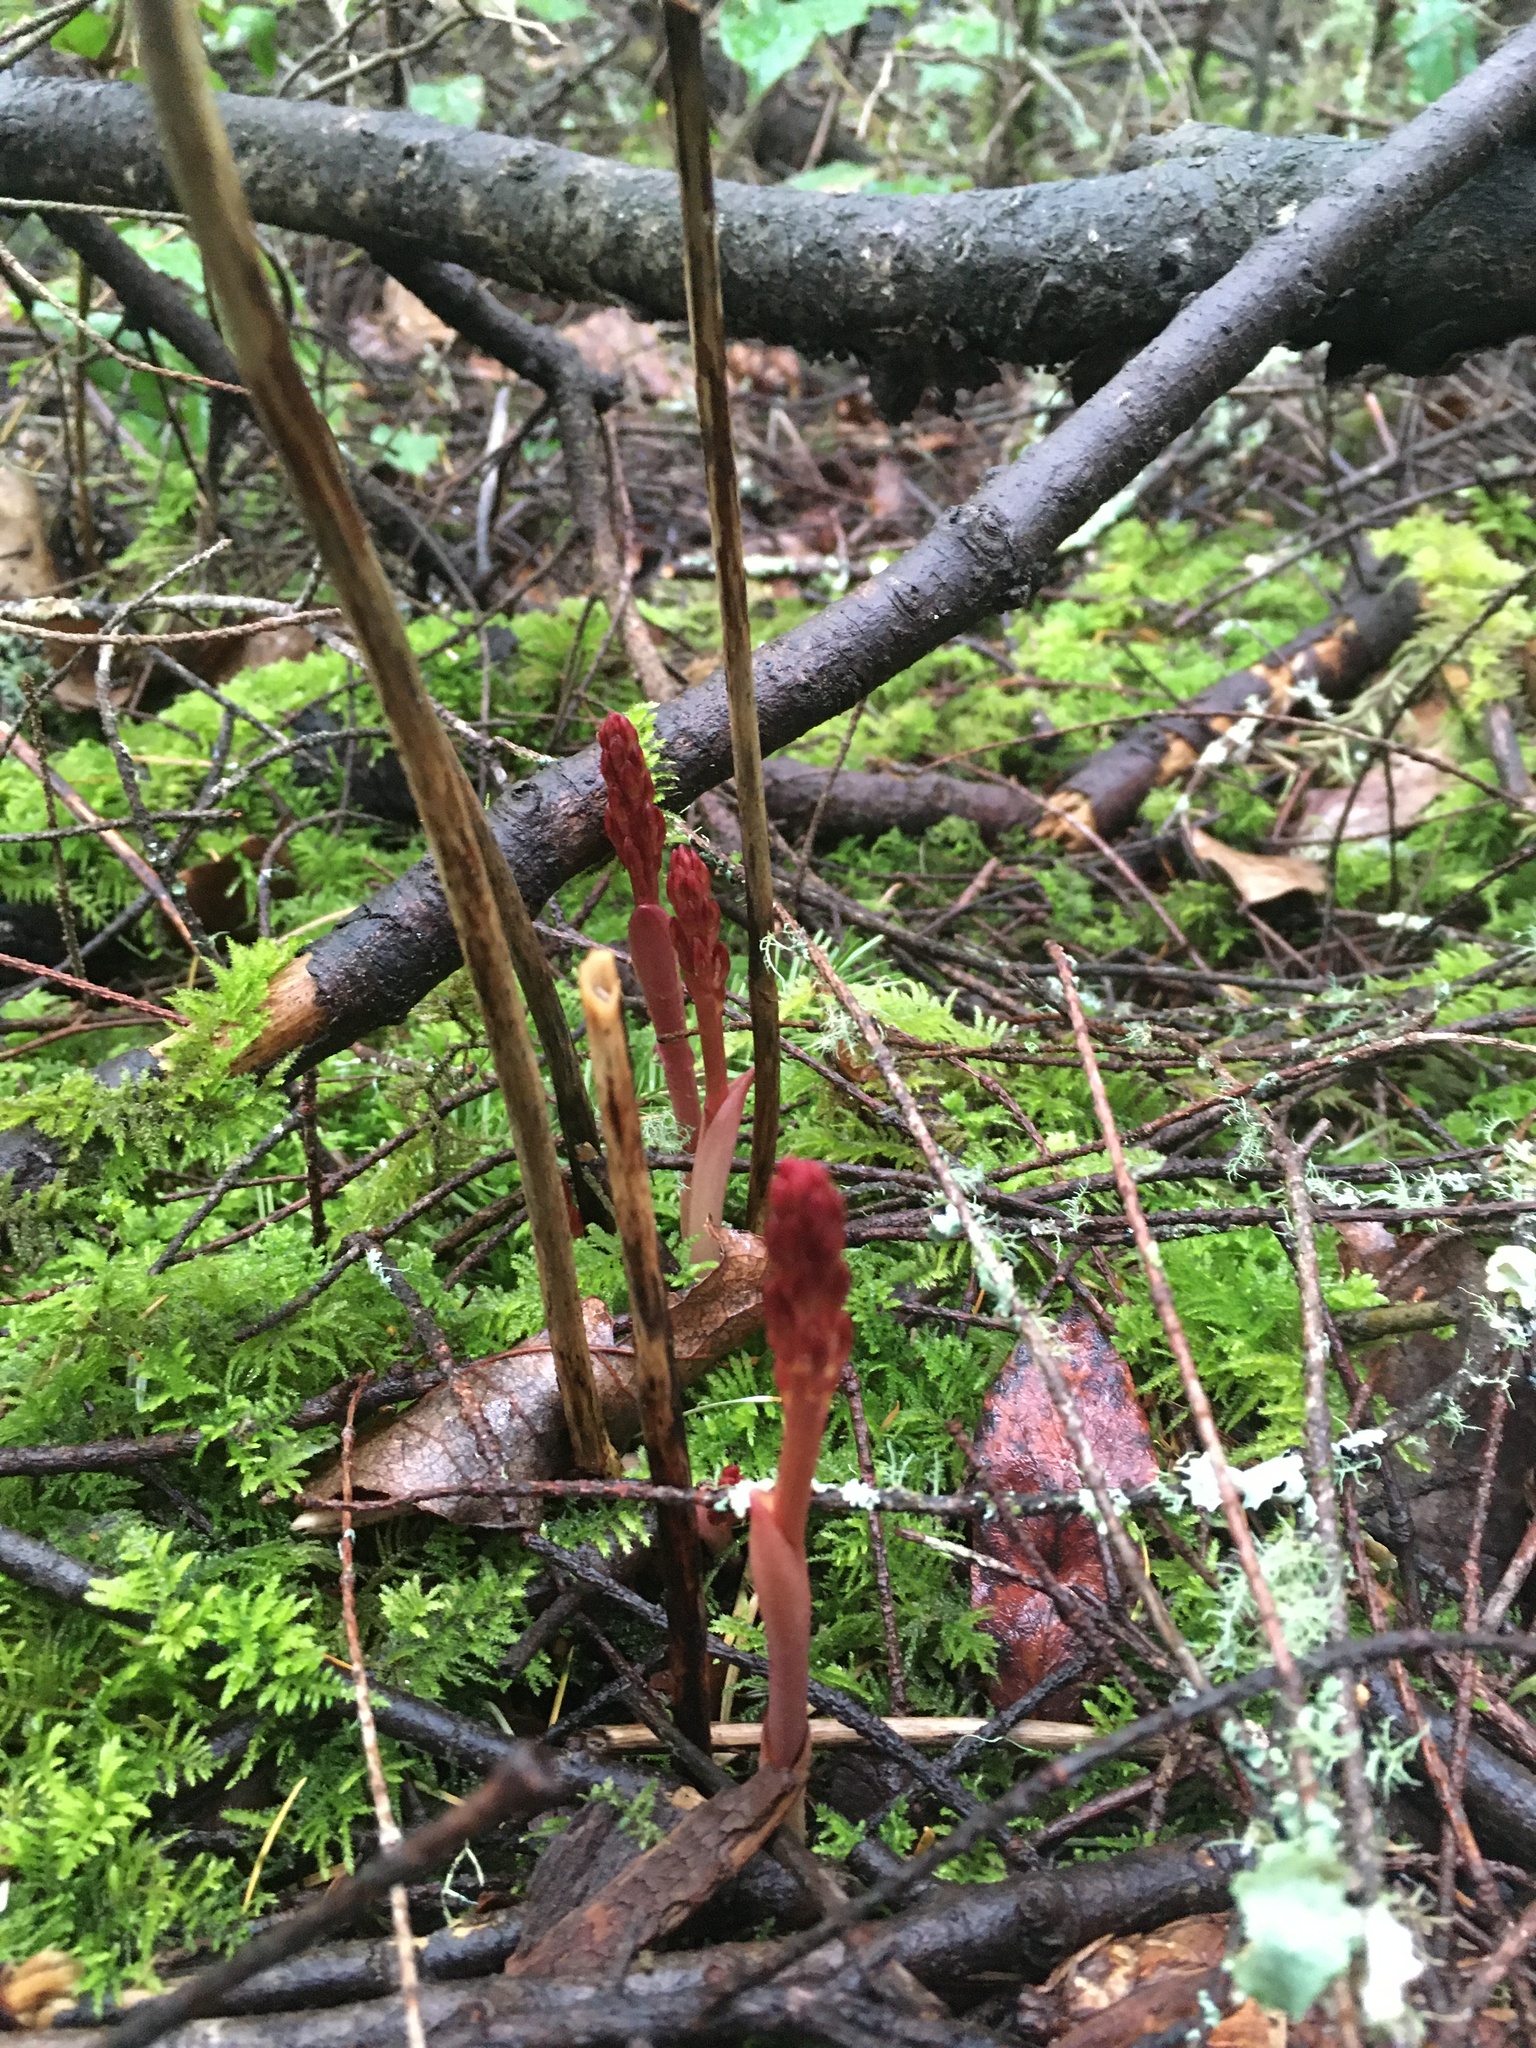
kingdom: Plantae
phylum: Tracheophyta
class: Liliopsida
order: Asparagales
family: Orchidaceae
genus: Corallorhiza
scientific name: Corallorhiza maculata
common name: Spotted coralroot
